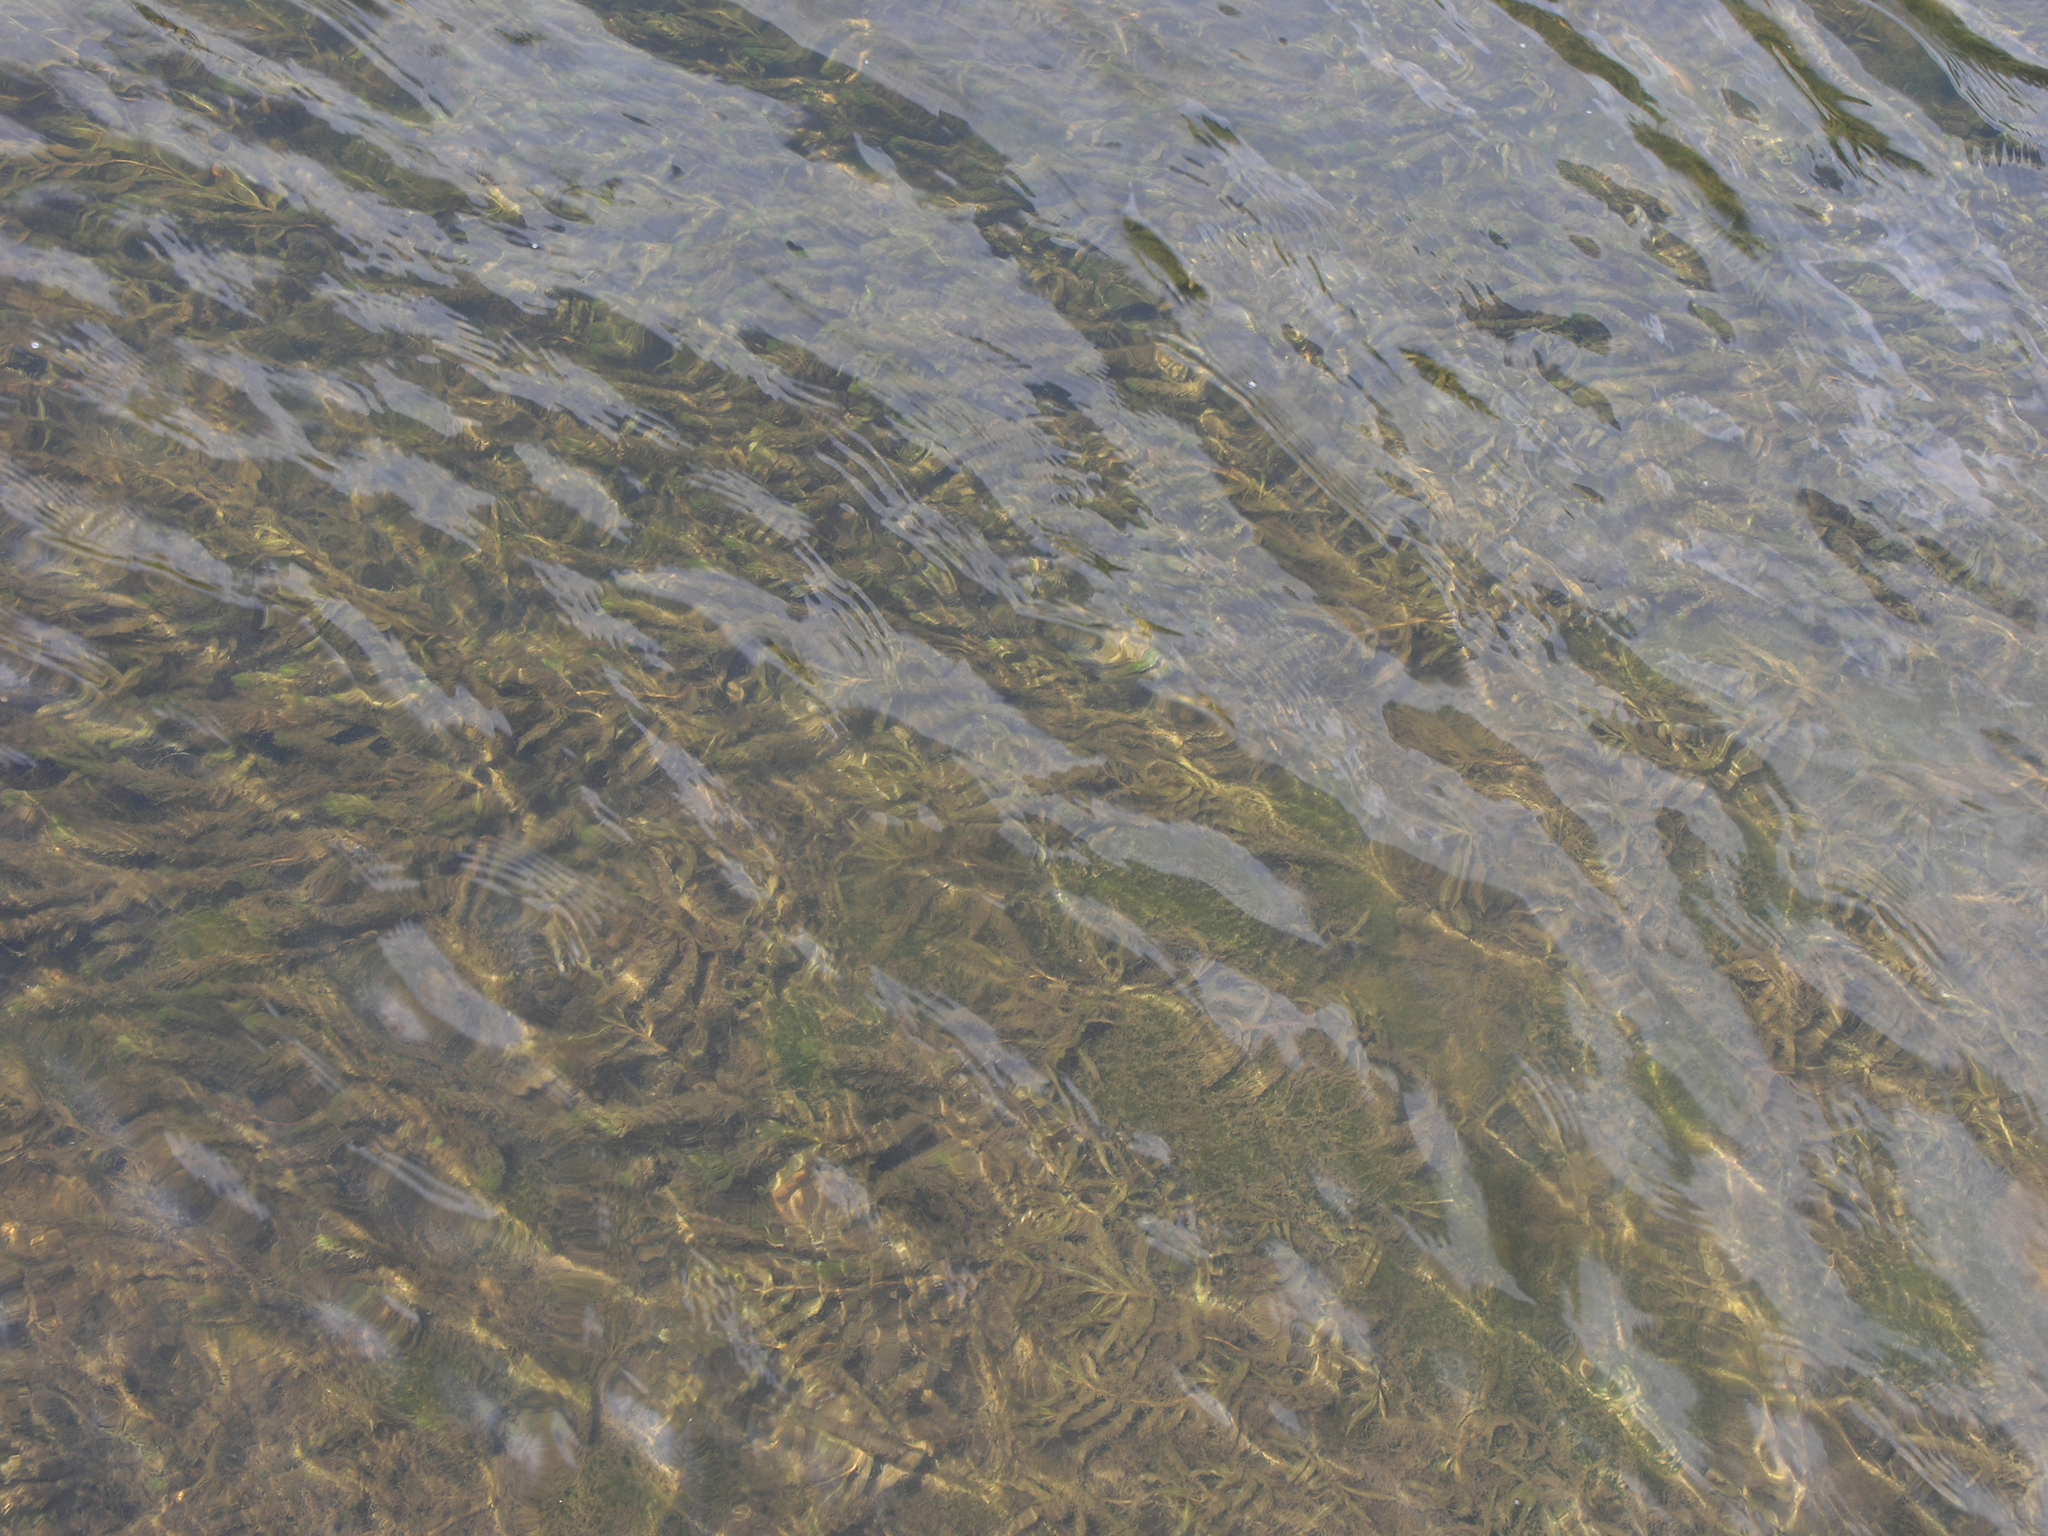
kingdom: Plantae
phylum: Tracheophyta
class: Liliopsida
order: Alismatales
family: Potamogetonaceae
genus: Potamogeton
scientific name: Potamogeton lucens
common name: Shining pondweed
